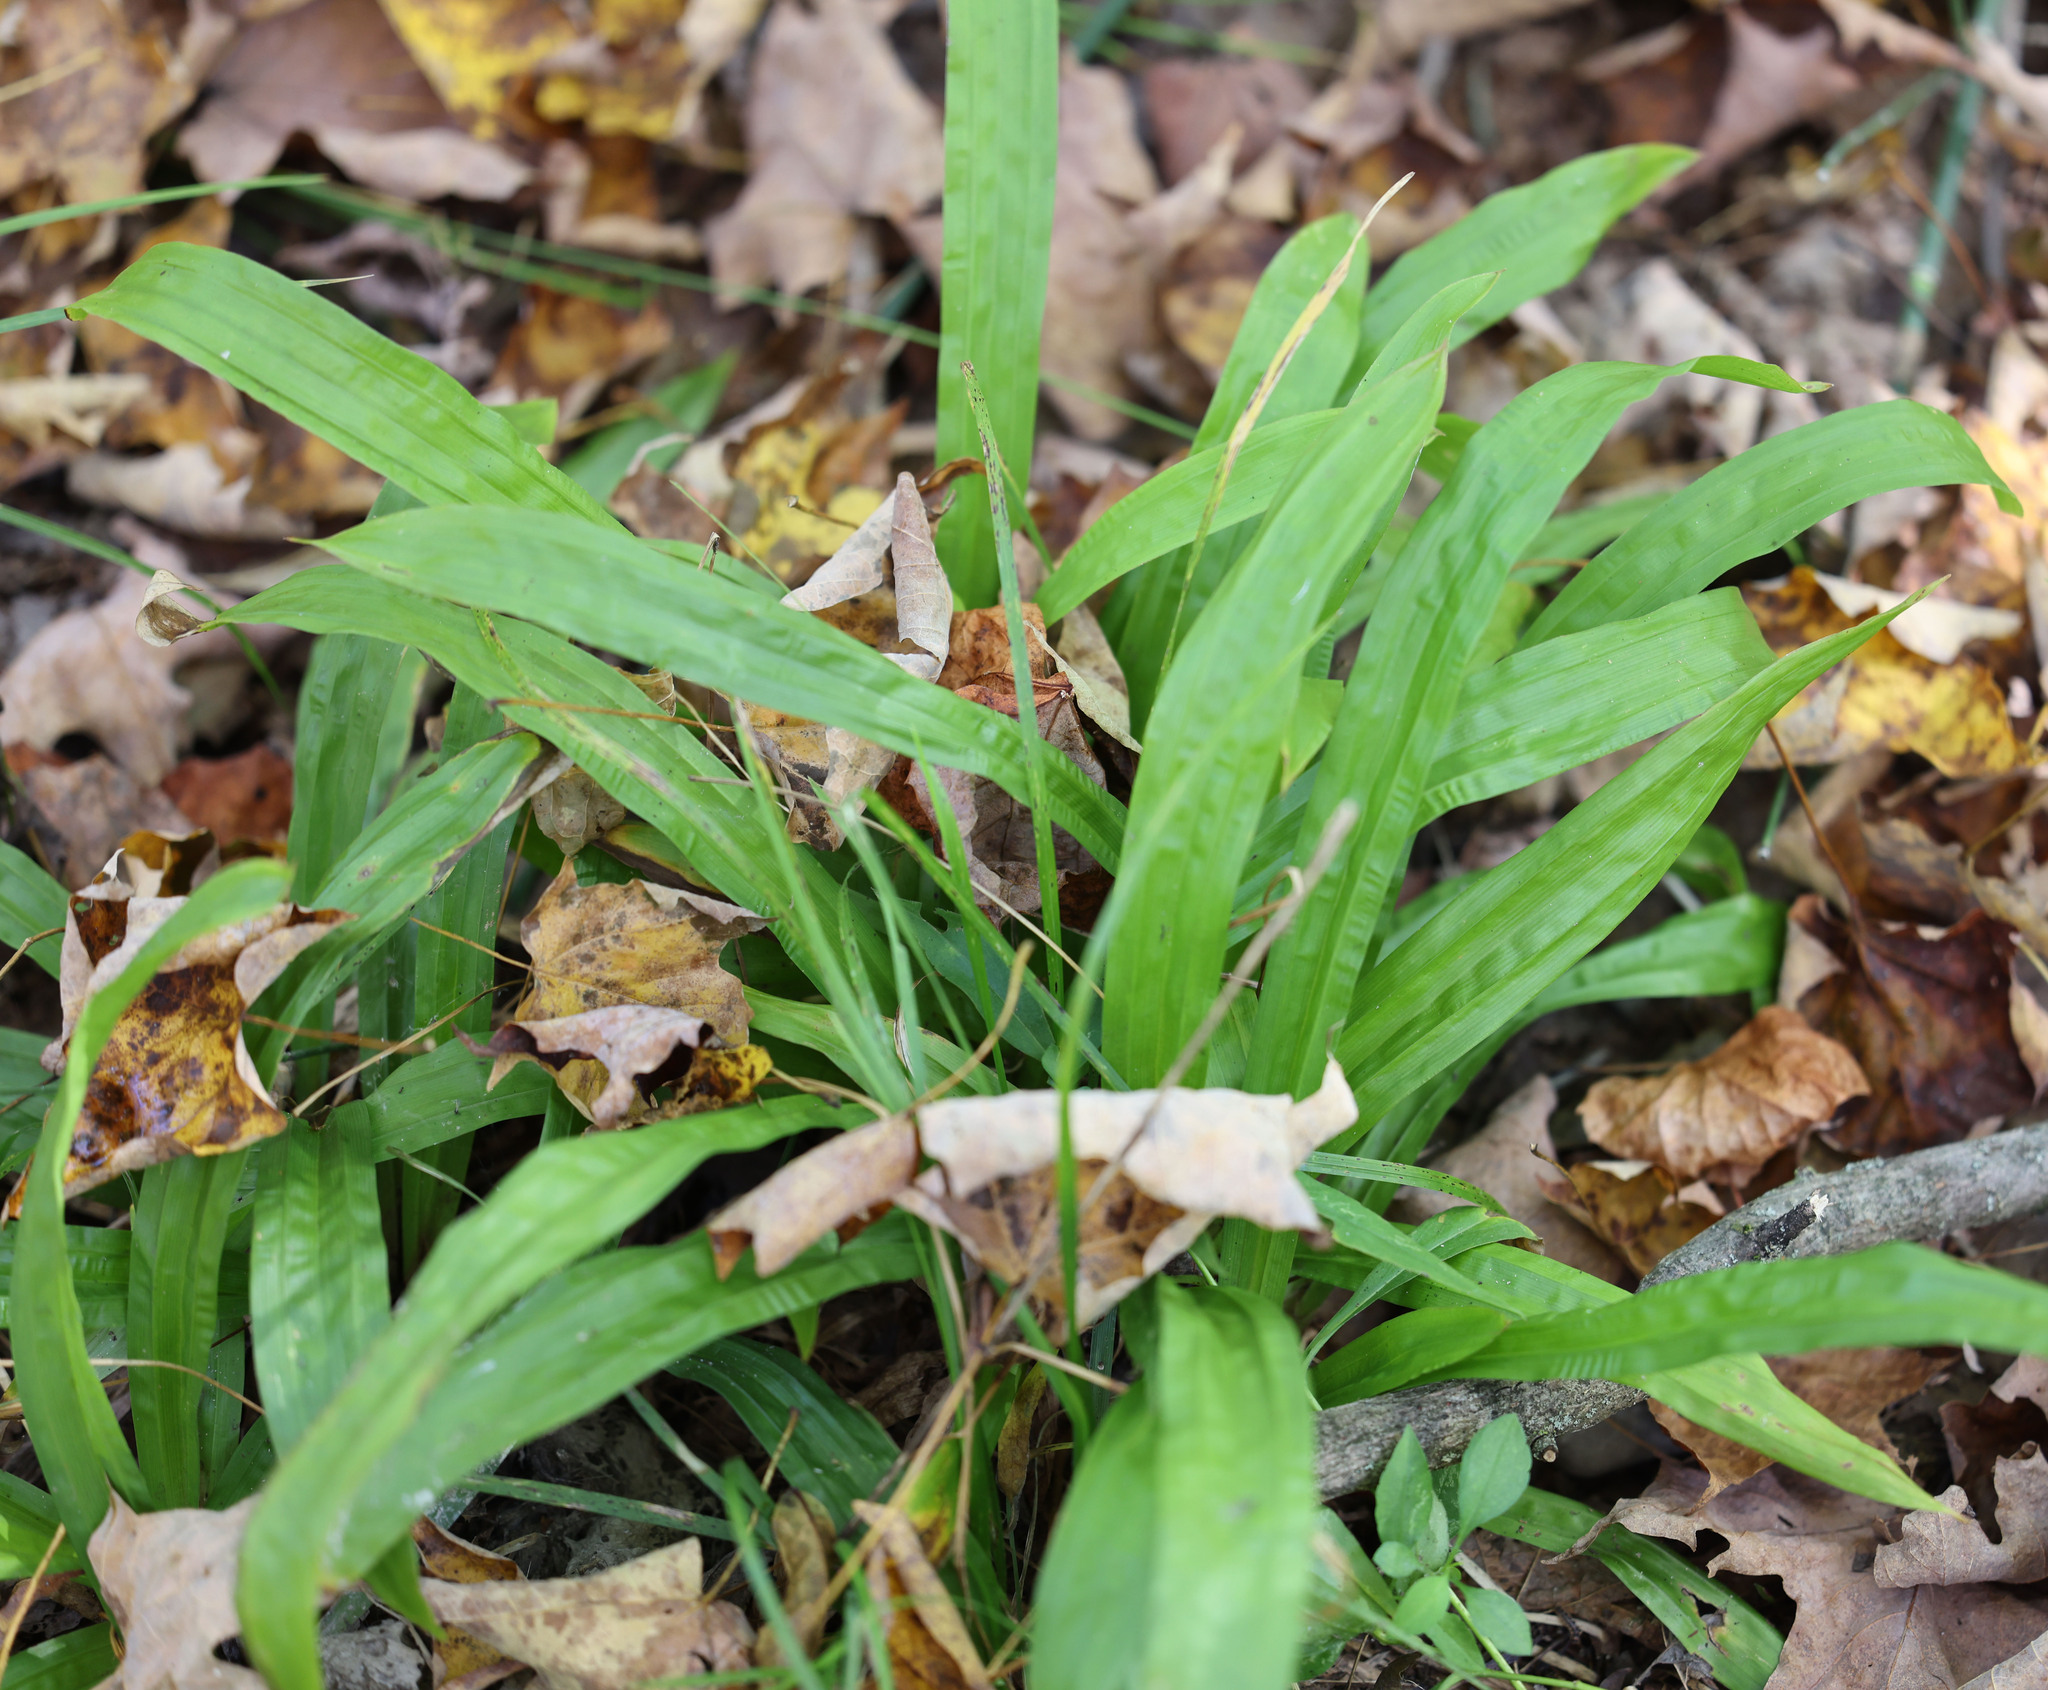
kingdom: Plantae
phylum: Tracheophyta
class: Liliopsida
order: Poales
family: Cyperaceae
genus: Carex
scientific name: Carex plantaginea
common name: Plantain-leaved sedge
